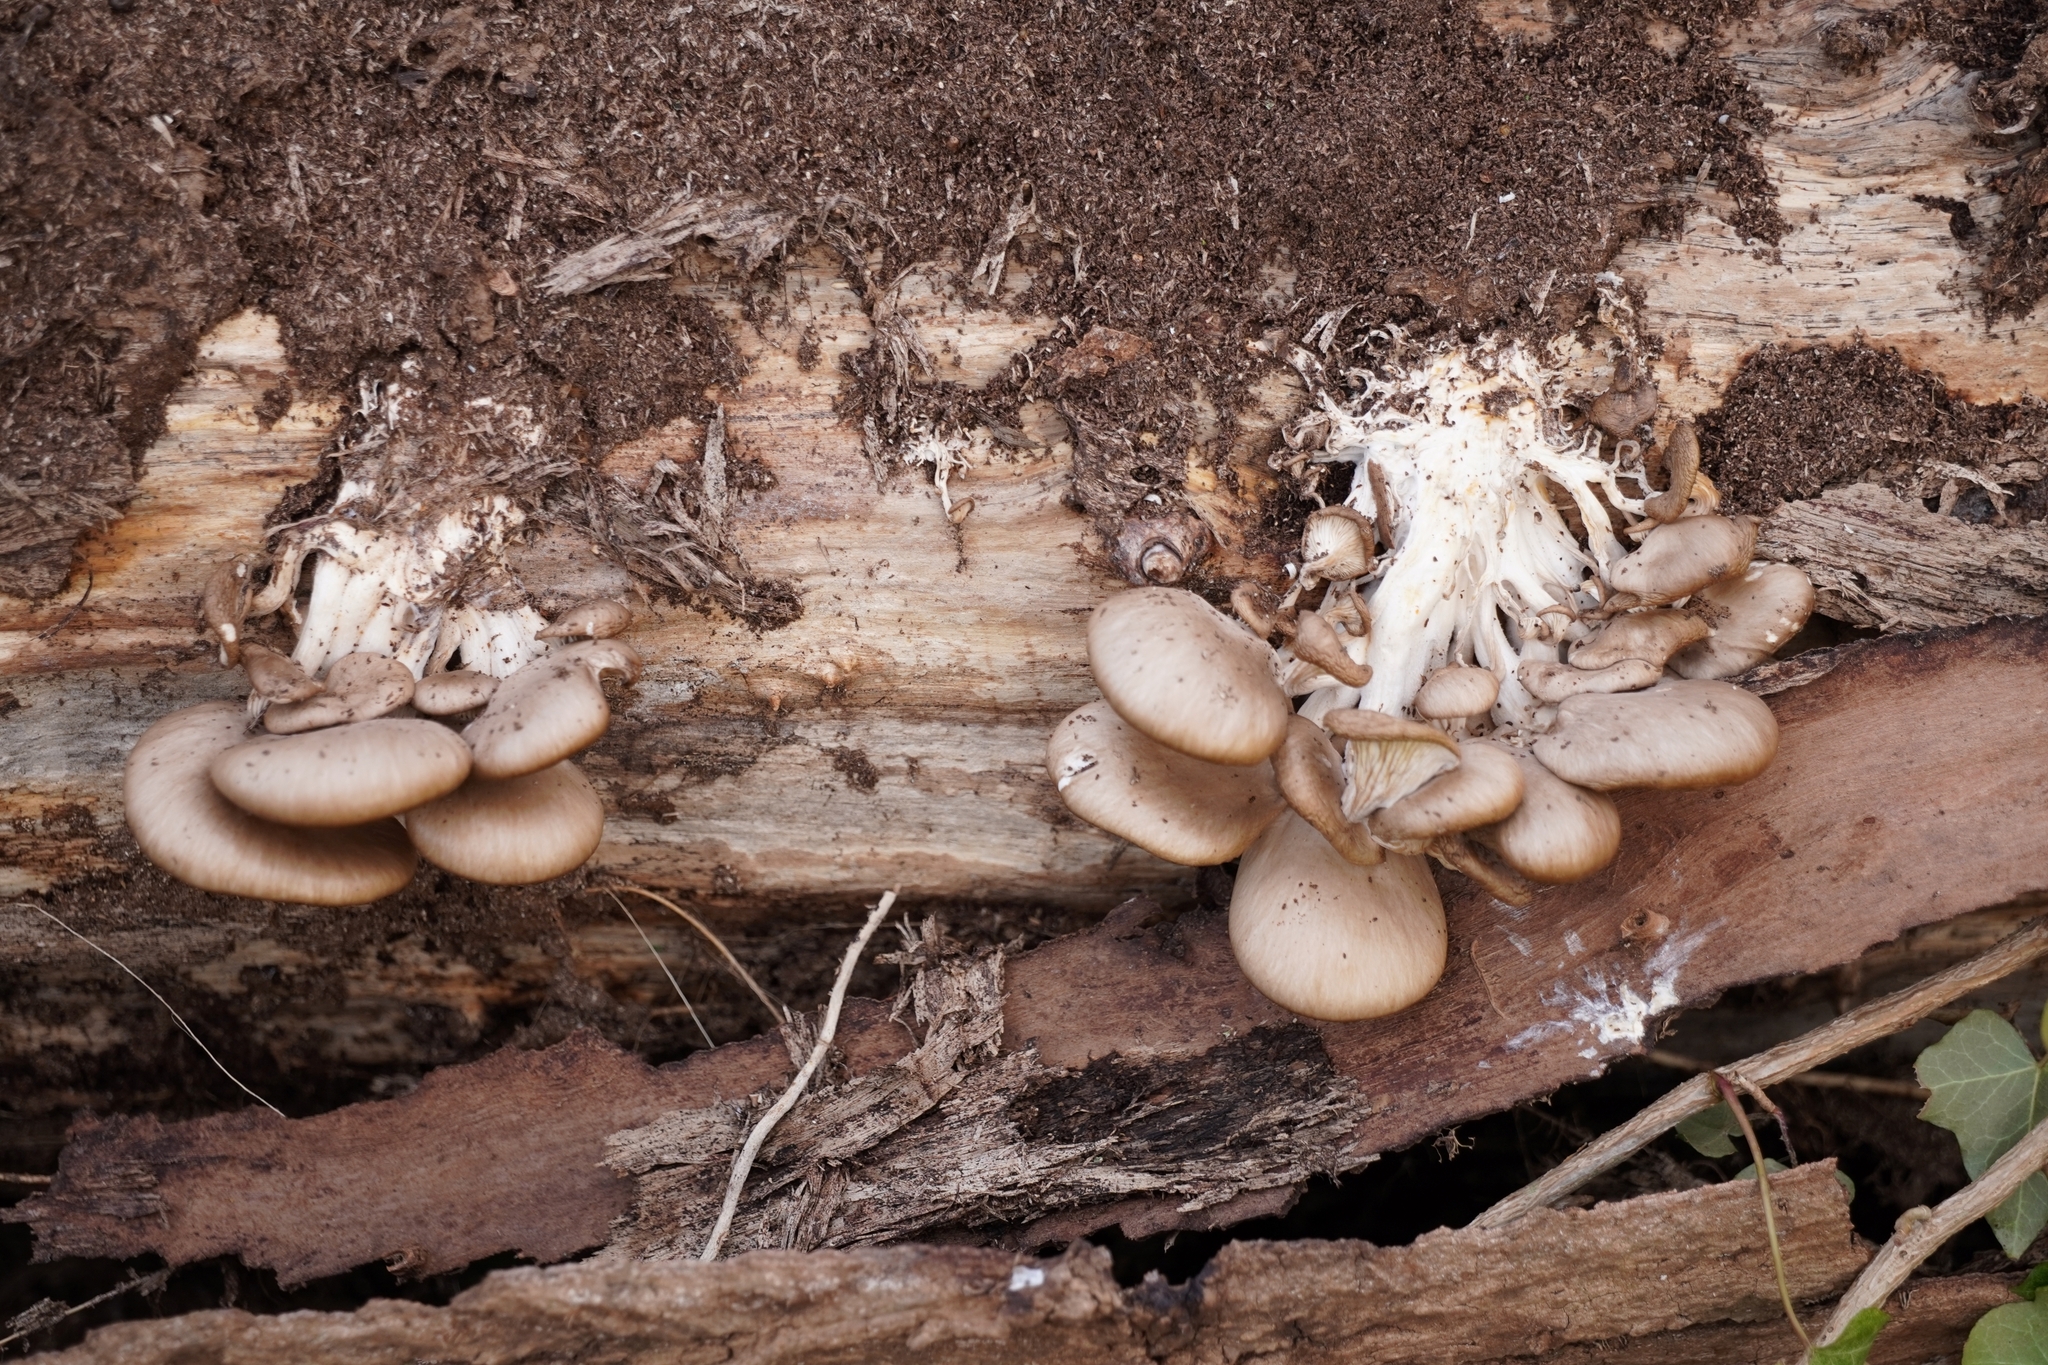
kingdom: Fungi
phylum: Basidiomycota
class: Agaricomycetes
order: Agaricales
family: Pleurotaceae
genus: Pleurotus
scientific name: Pleurotus ostreatus
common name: Oyster mushroom
